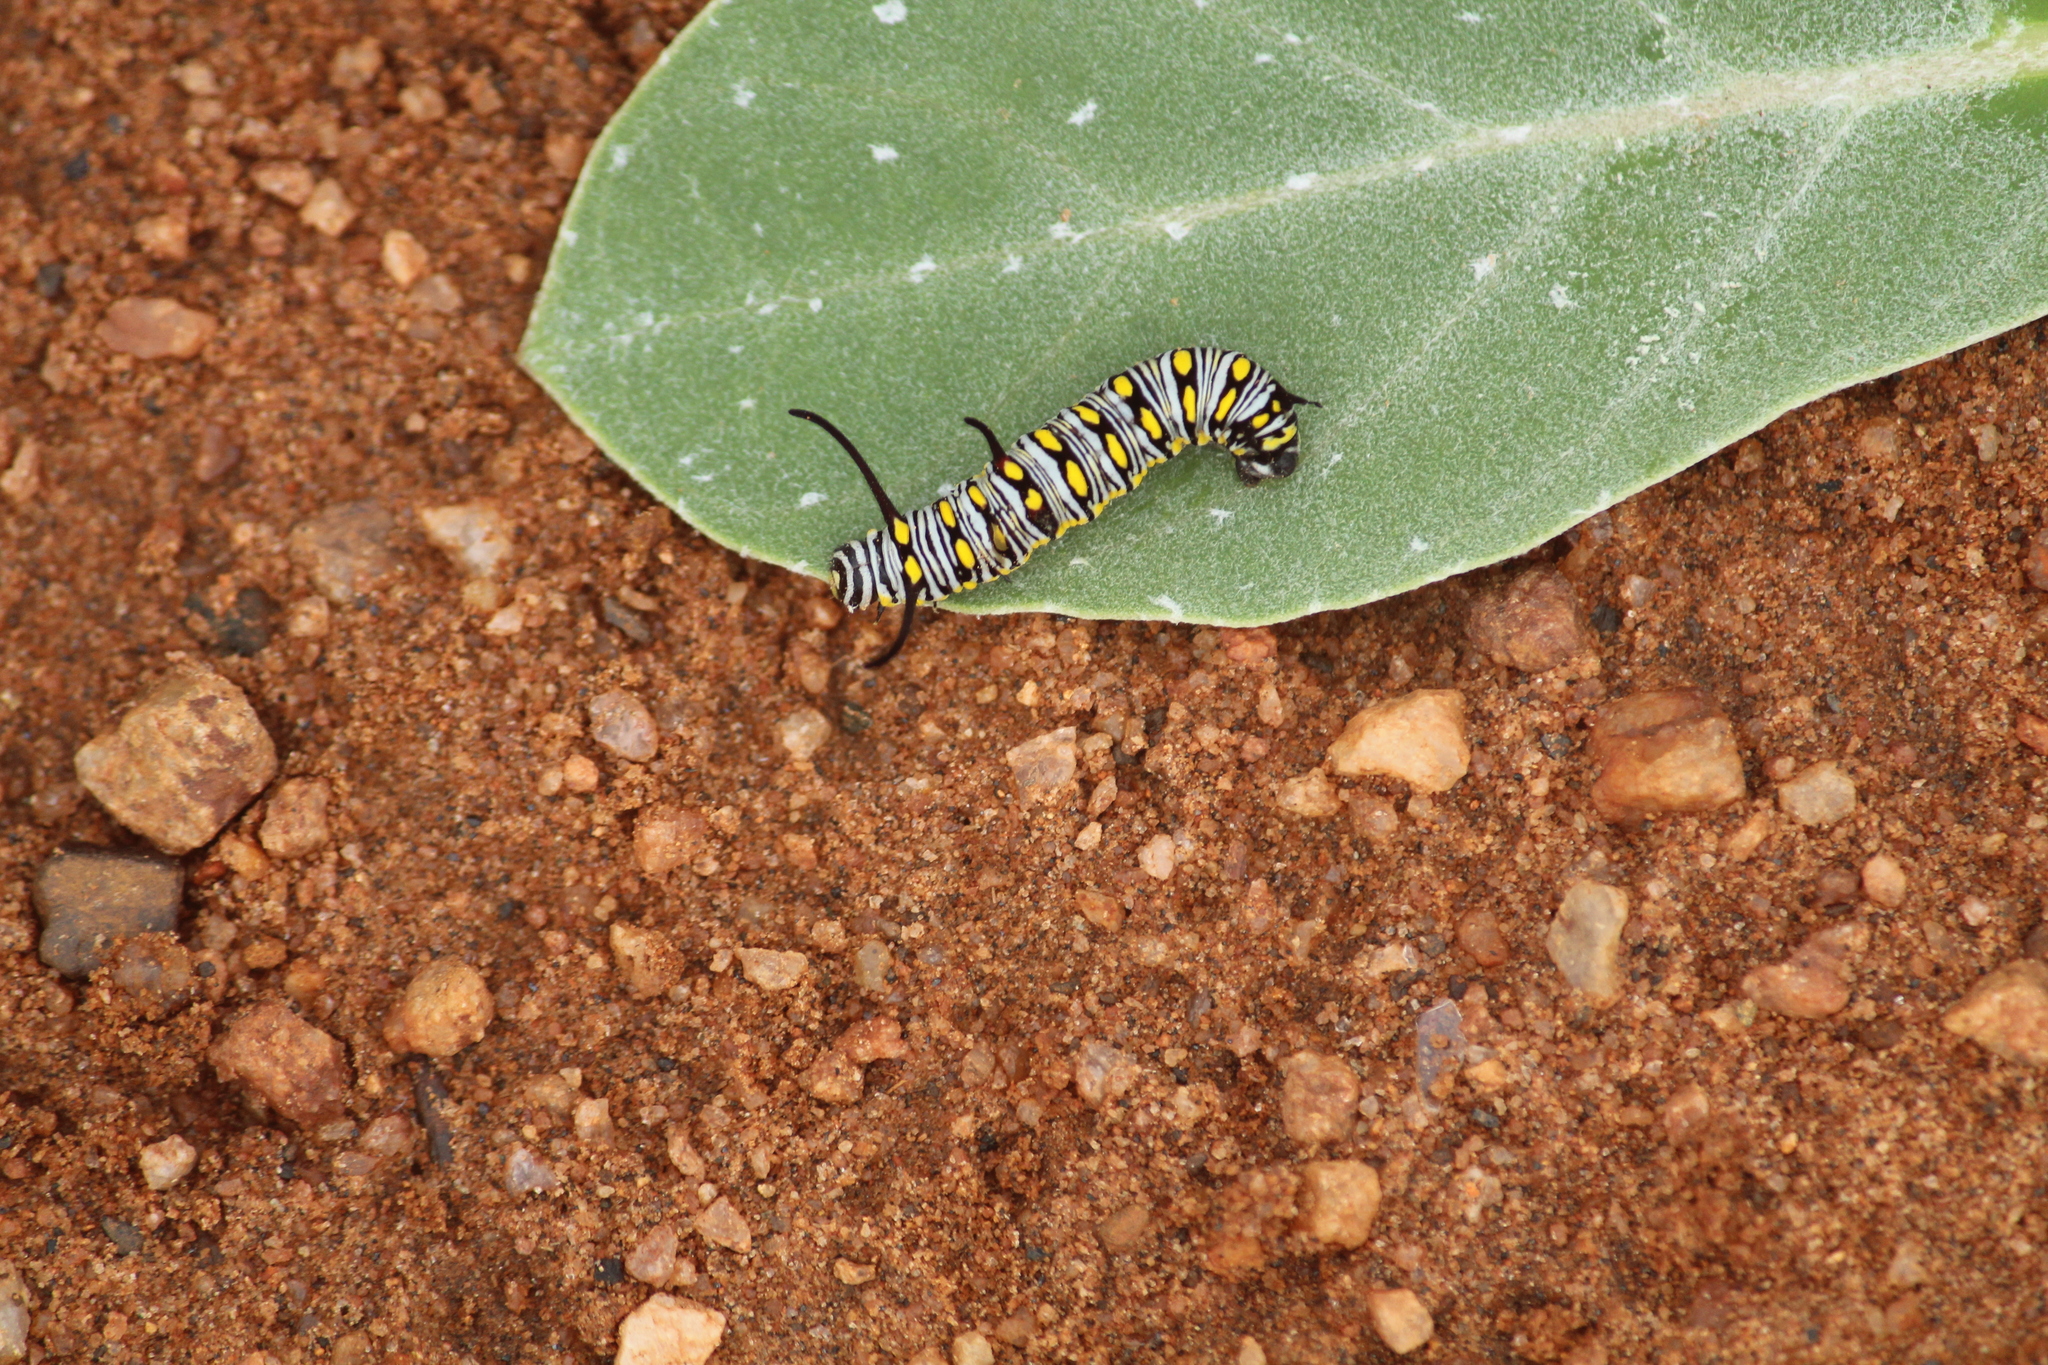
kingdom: Animalia
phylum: Arthropoda
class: Insecta
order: Lepidoptera
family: Nymphalidae
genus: Danaus
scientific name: Danaus chrysippus
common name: Plain tiger
